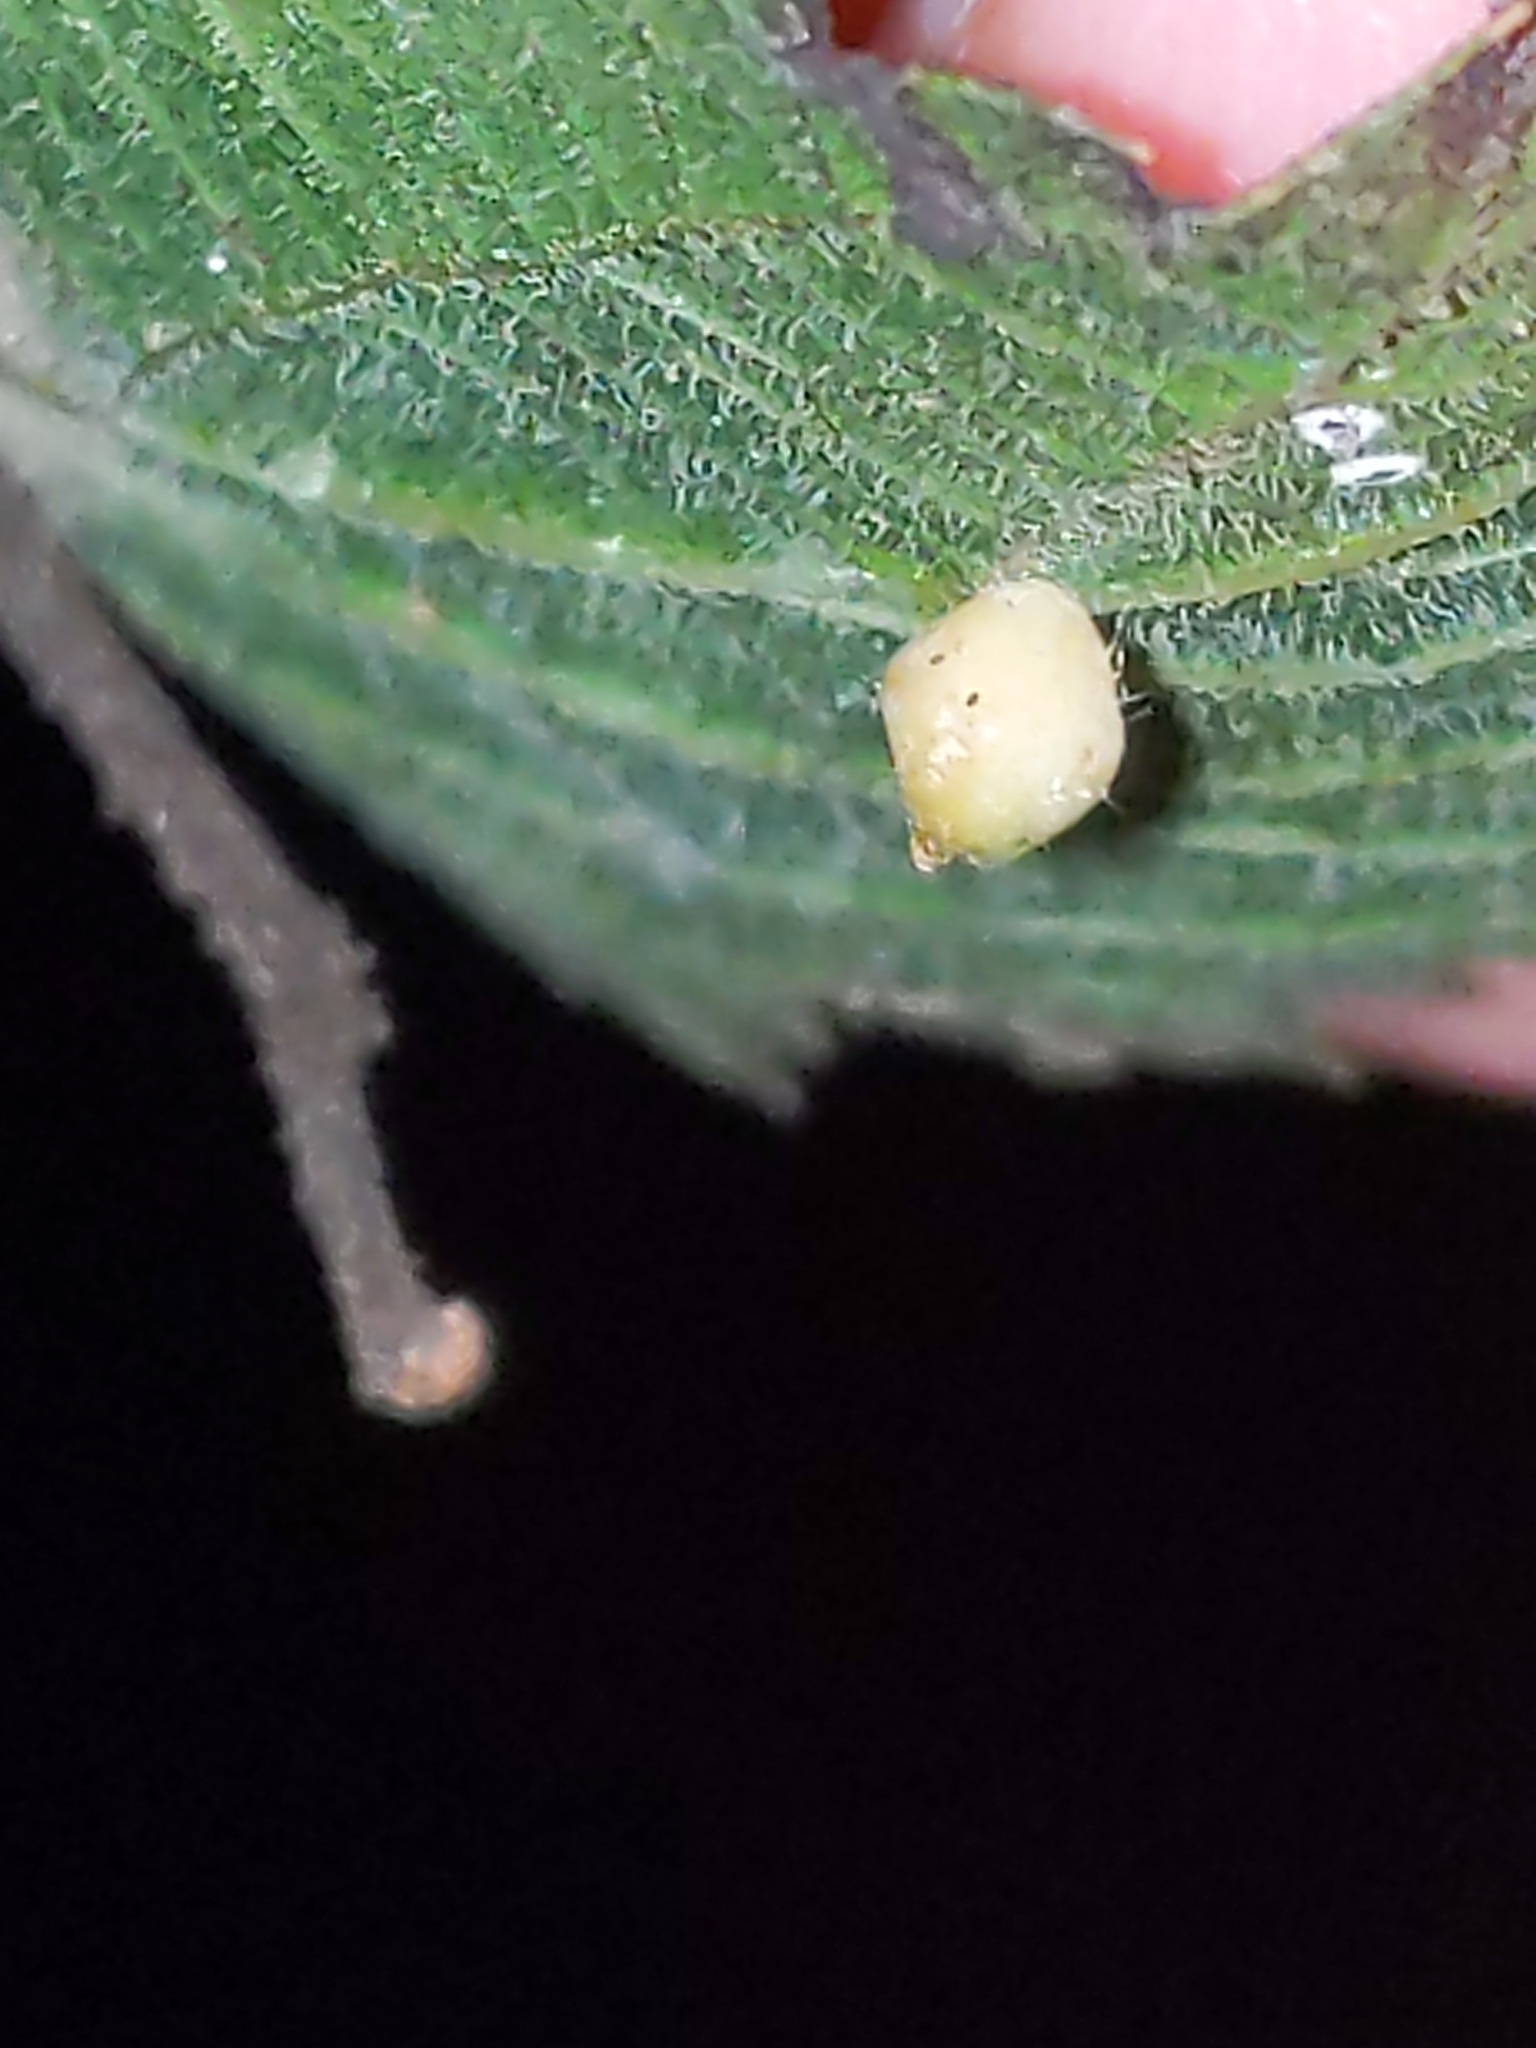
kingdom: Animalia
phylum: Arthropoda
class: Insecta
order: Diptera
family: Cecidomyiidae
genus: Celticecis
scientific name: Celticecis globosa
